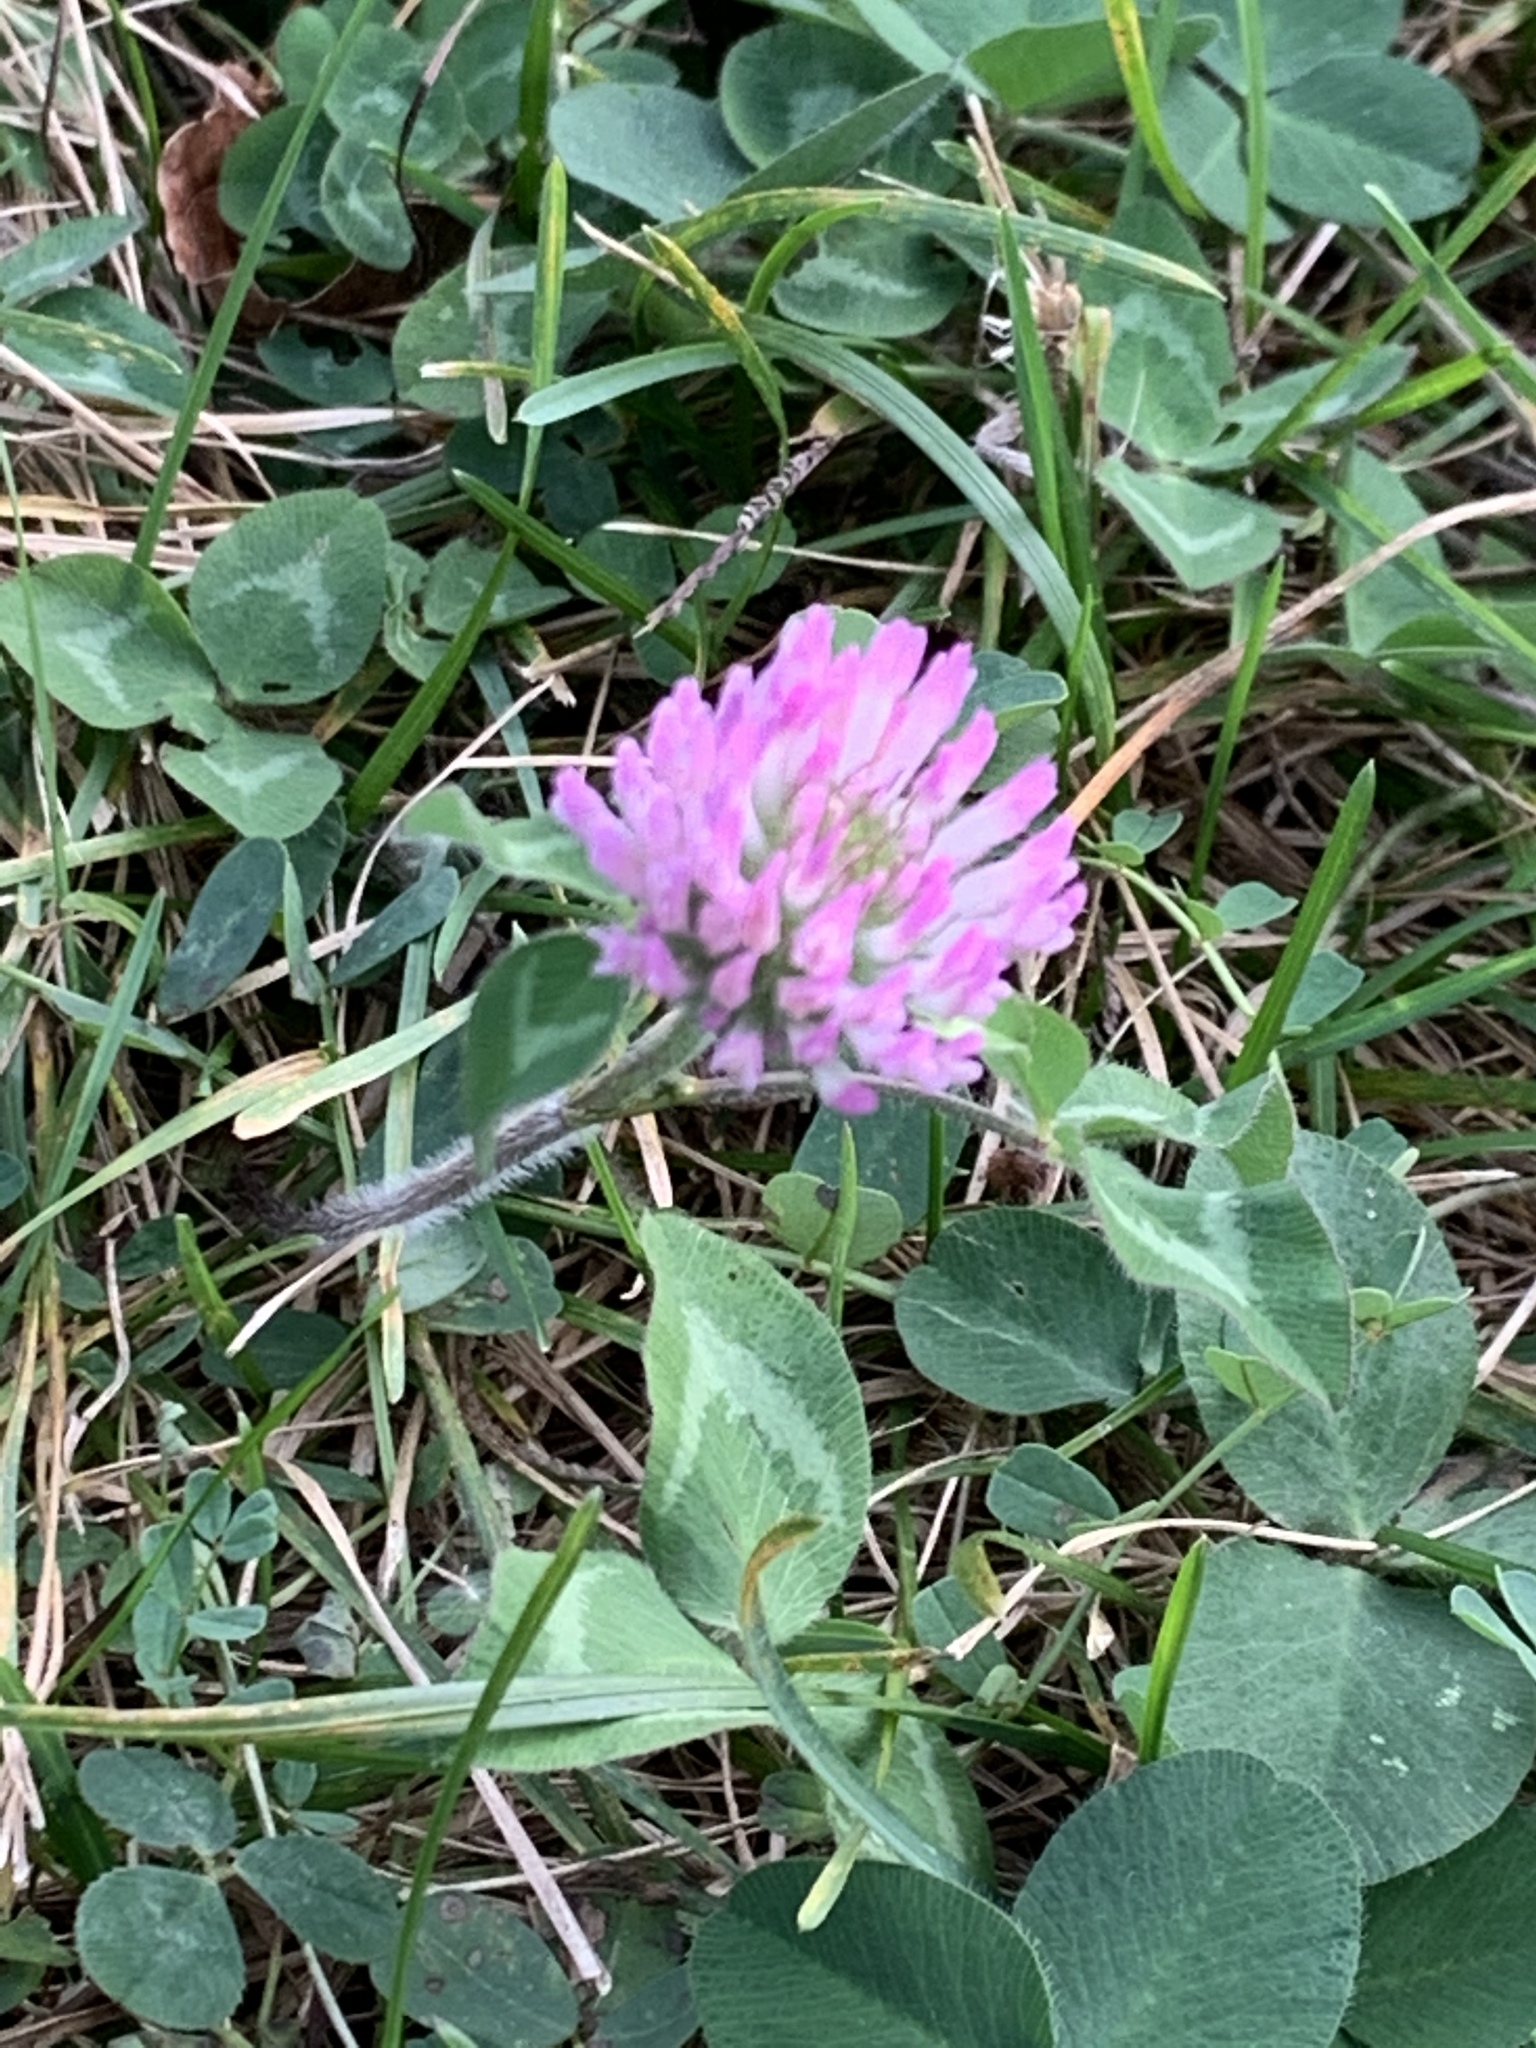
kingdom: Plantae
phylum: Tracheophyta
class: Magnoliopsida
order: Fabales
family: Fabaceae
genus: Trifolium
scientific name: Trifolium pratense
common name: Red clover
